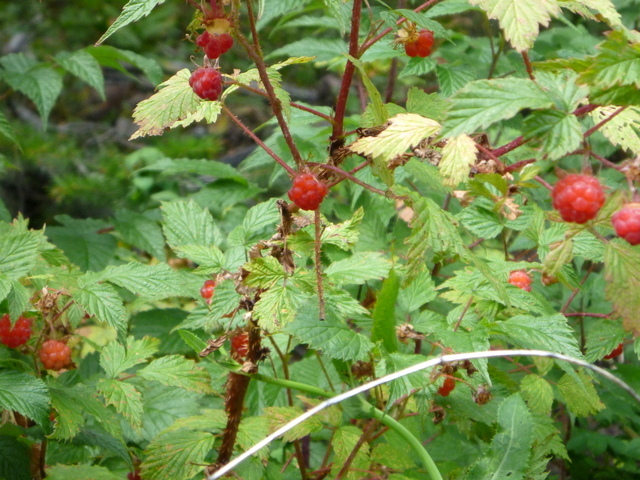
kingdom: Plantae
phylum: Tracheophyta
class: Magnoliopsida
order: Rosales
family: Rosaceae
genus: Rubus
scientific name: Rubus idaeus
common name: Raspberry
